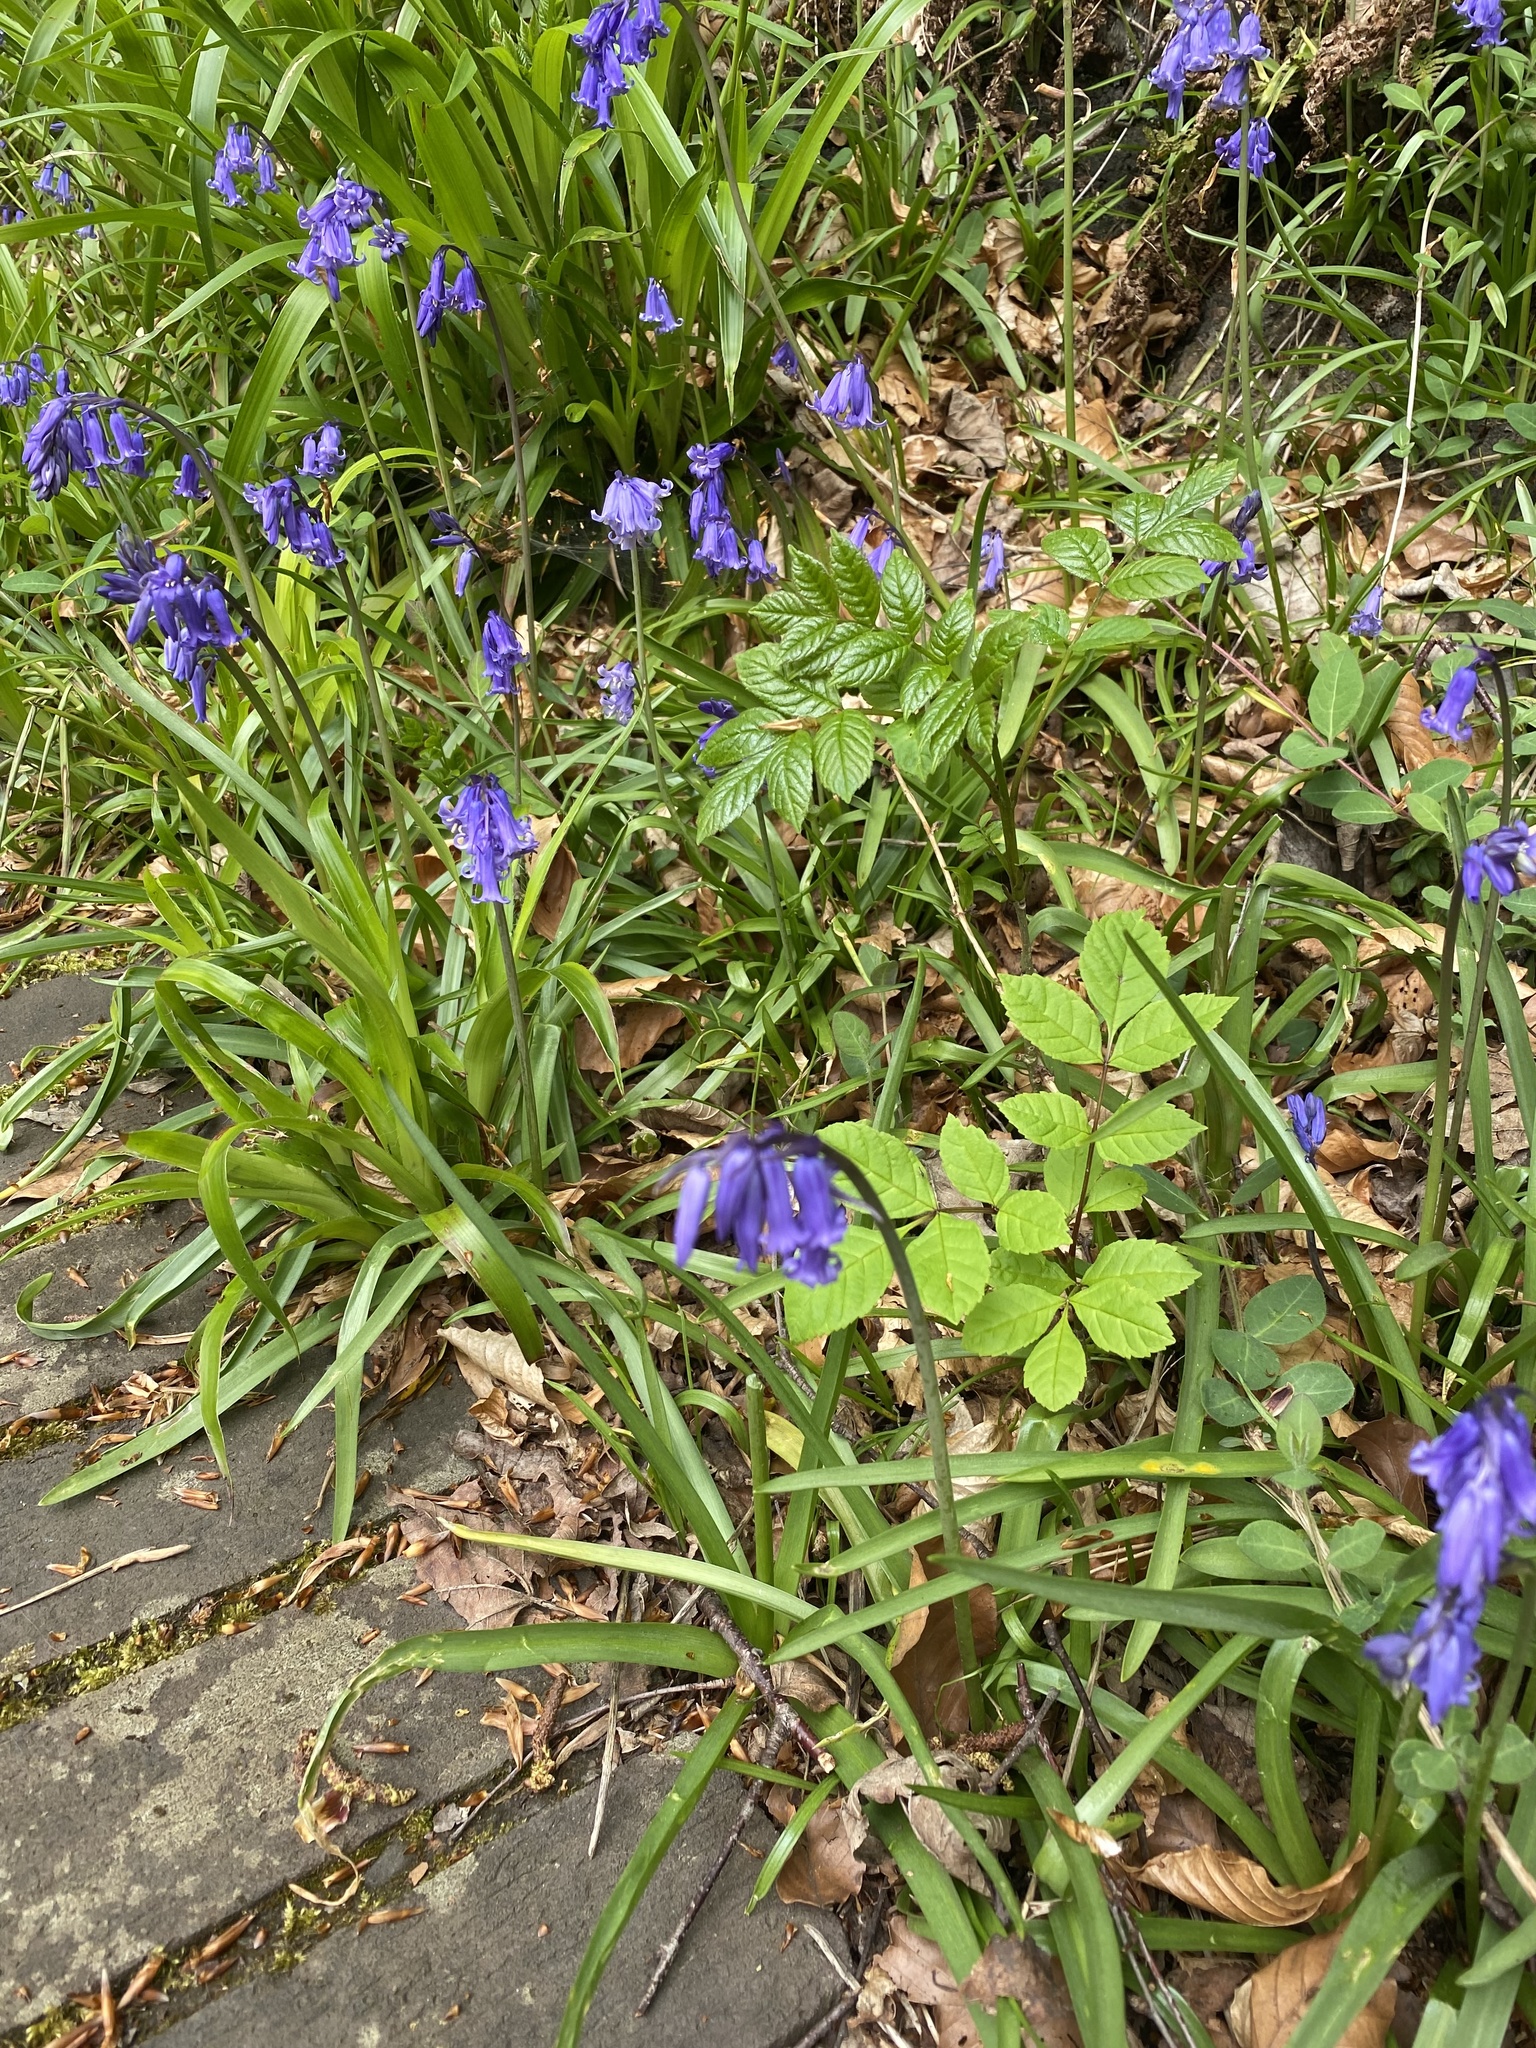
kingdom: Plantae
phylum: Tracheophyta
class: Liliopsida
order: Asparagales
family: Asparagaceae
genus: Hyacinthoides
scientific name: Hyacinthoides non-scripta
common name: Bluebell
